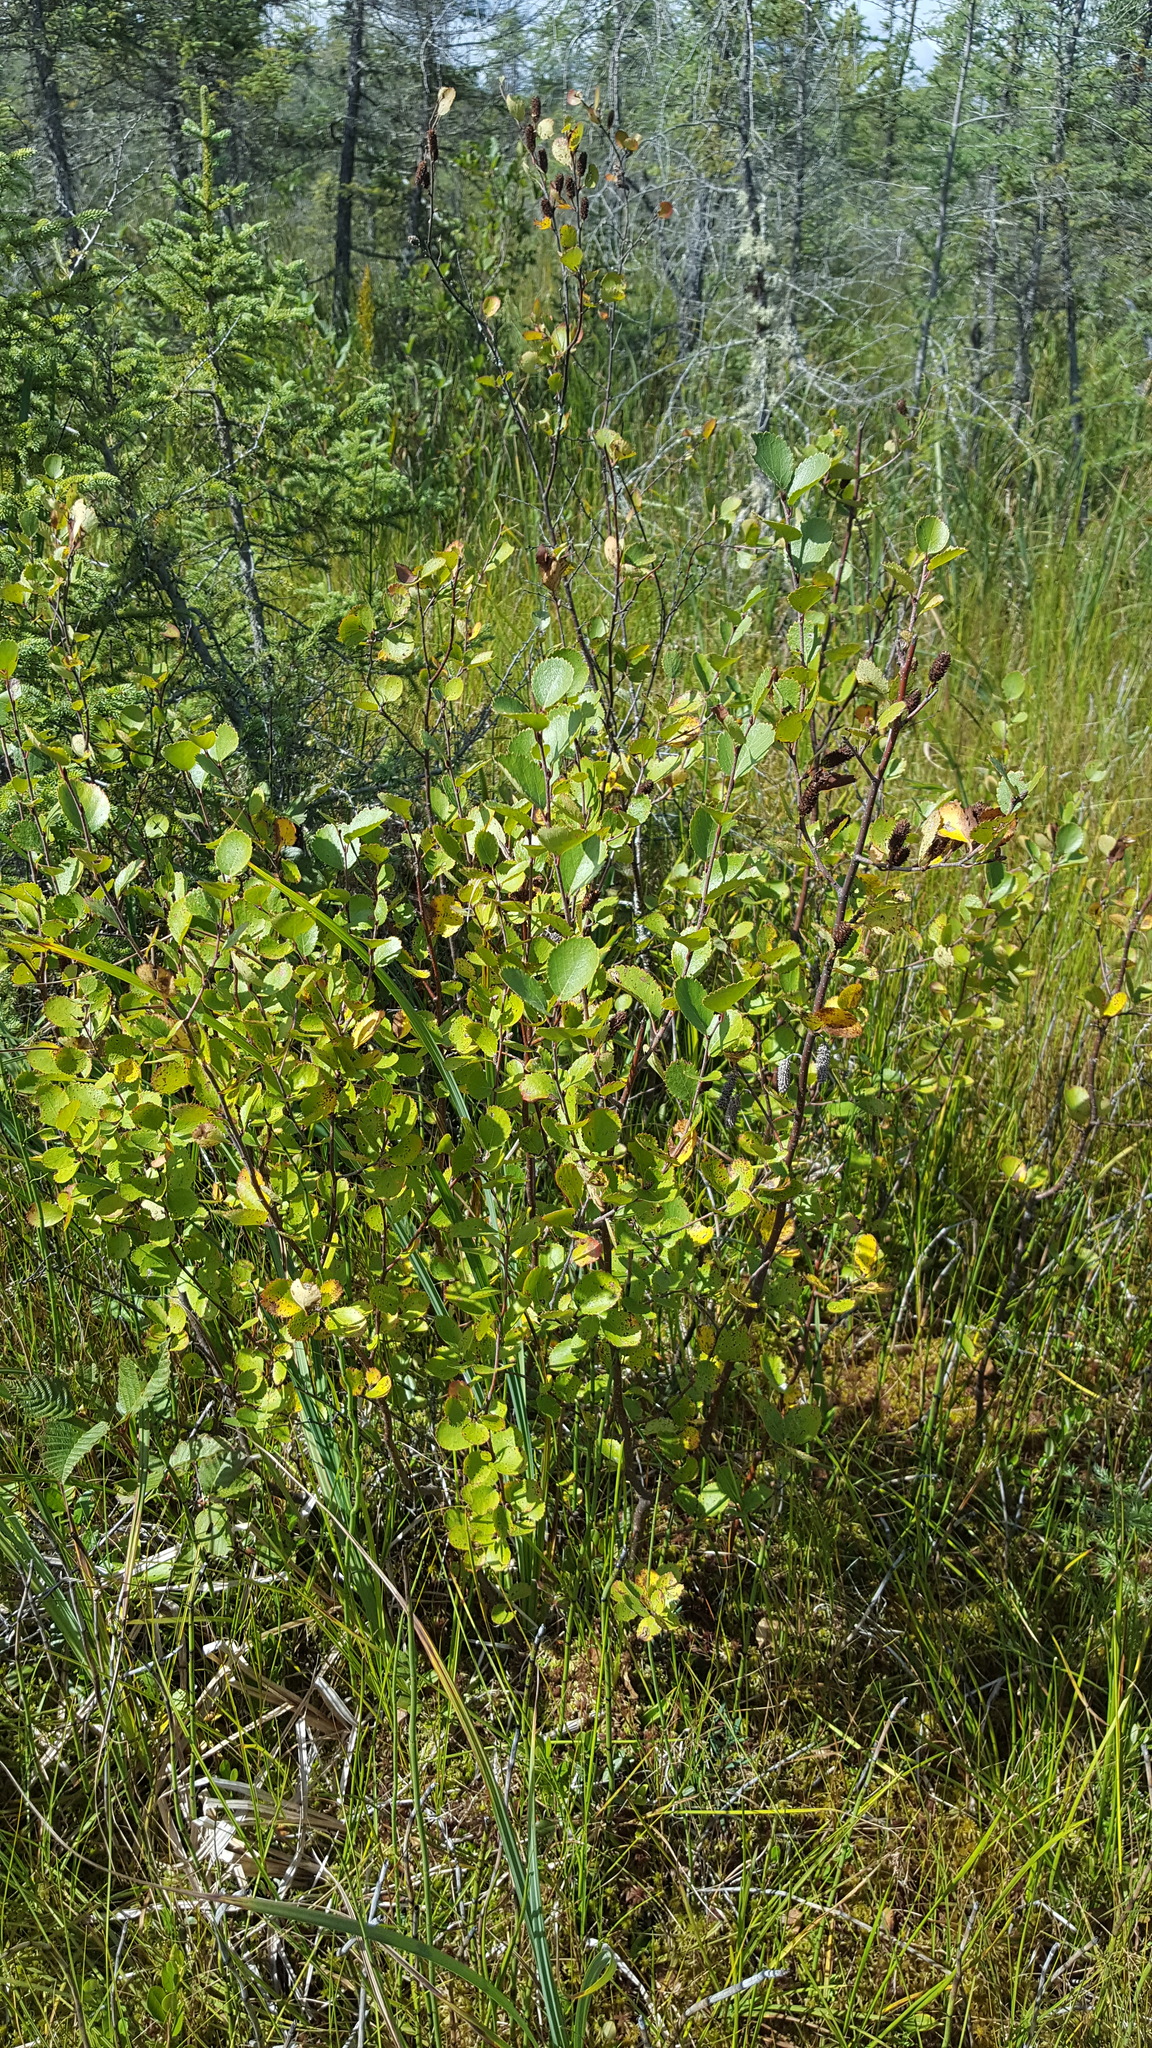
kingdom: Plantae
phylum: Tracheophyta
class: Magnoliopsida
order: Fagales
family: Betulaceae
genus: Betula
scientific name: Betula pumila
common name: Bog birch
